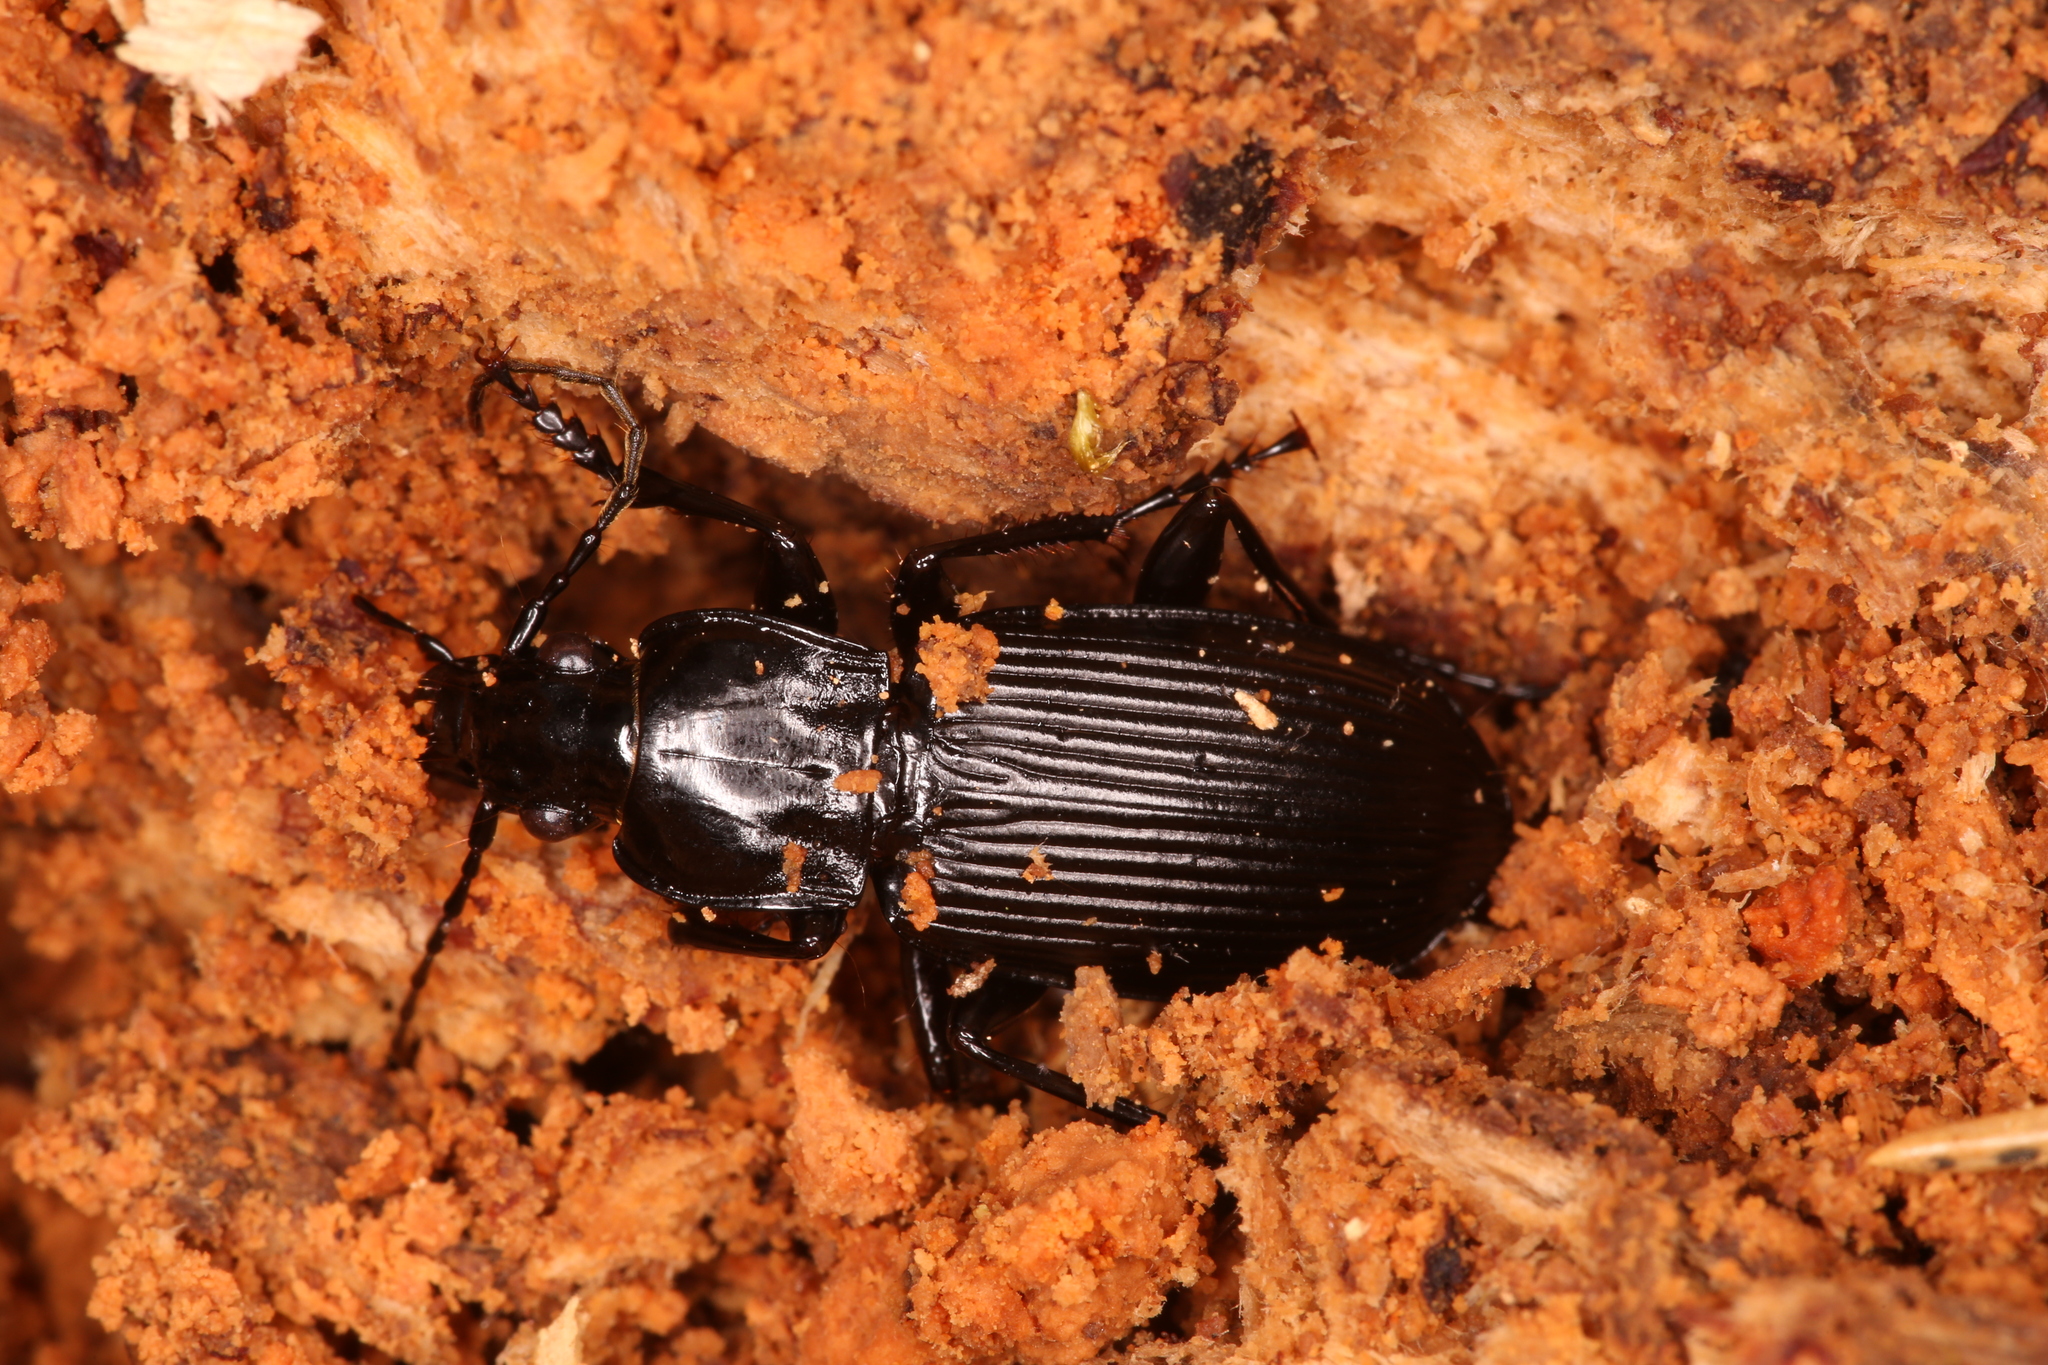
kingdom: Animalia
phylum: Arthropoda
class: Insecta
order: Coleoptera
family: Carabidae
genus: Pterostichus
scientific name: Pterostichus niger
